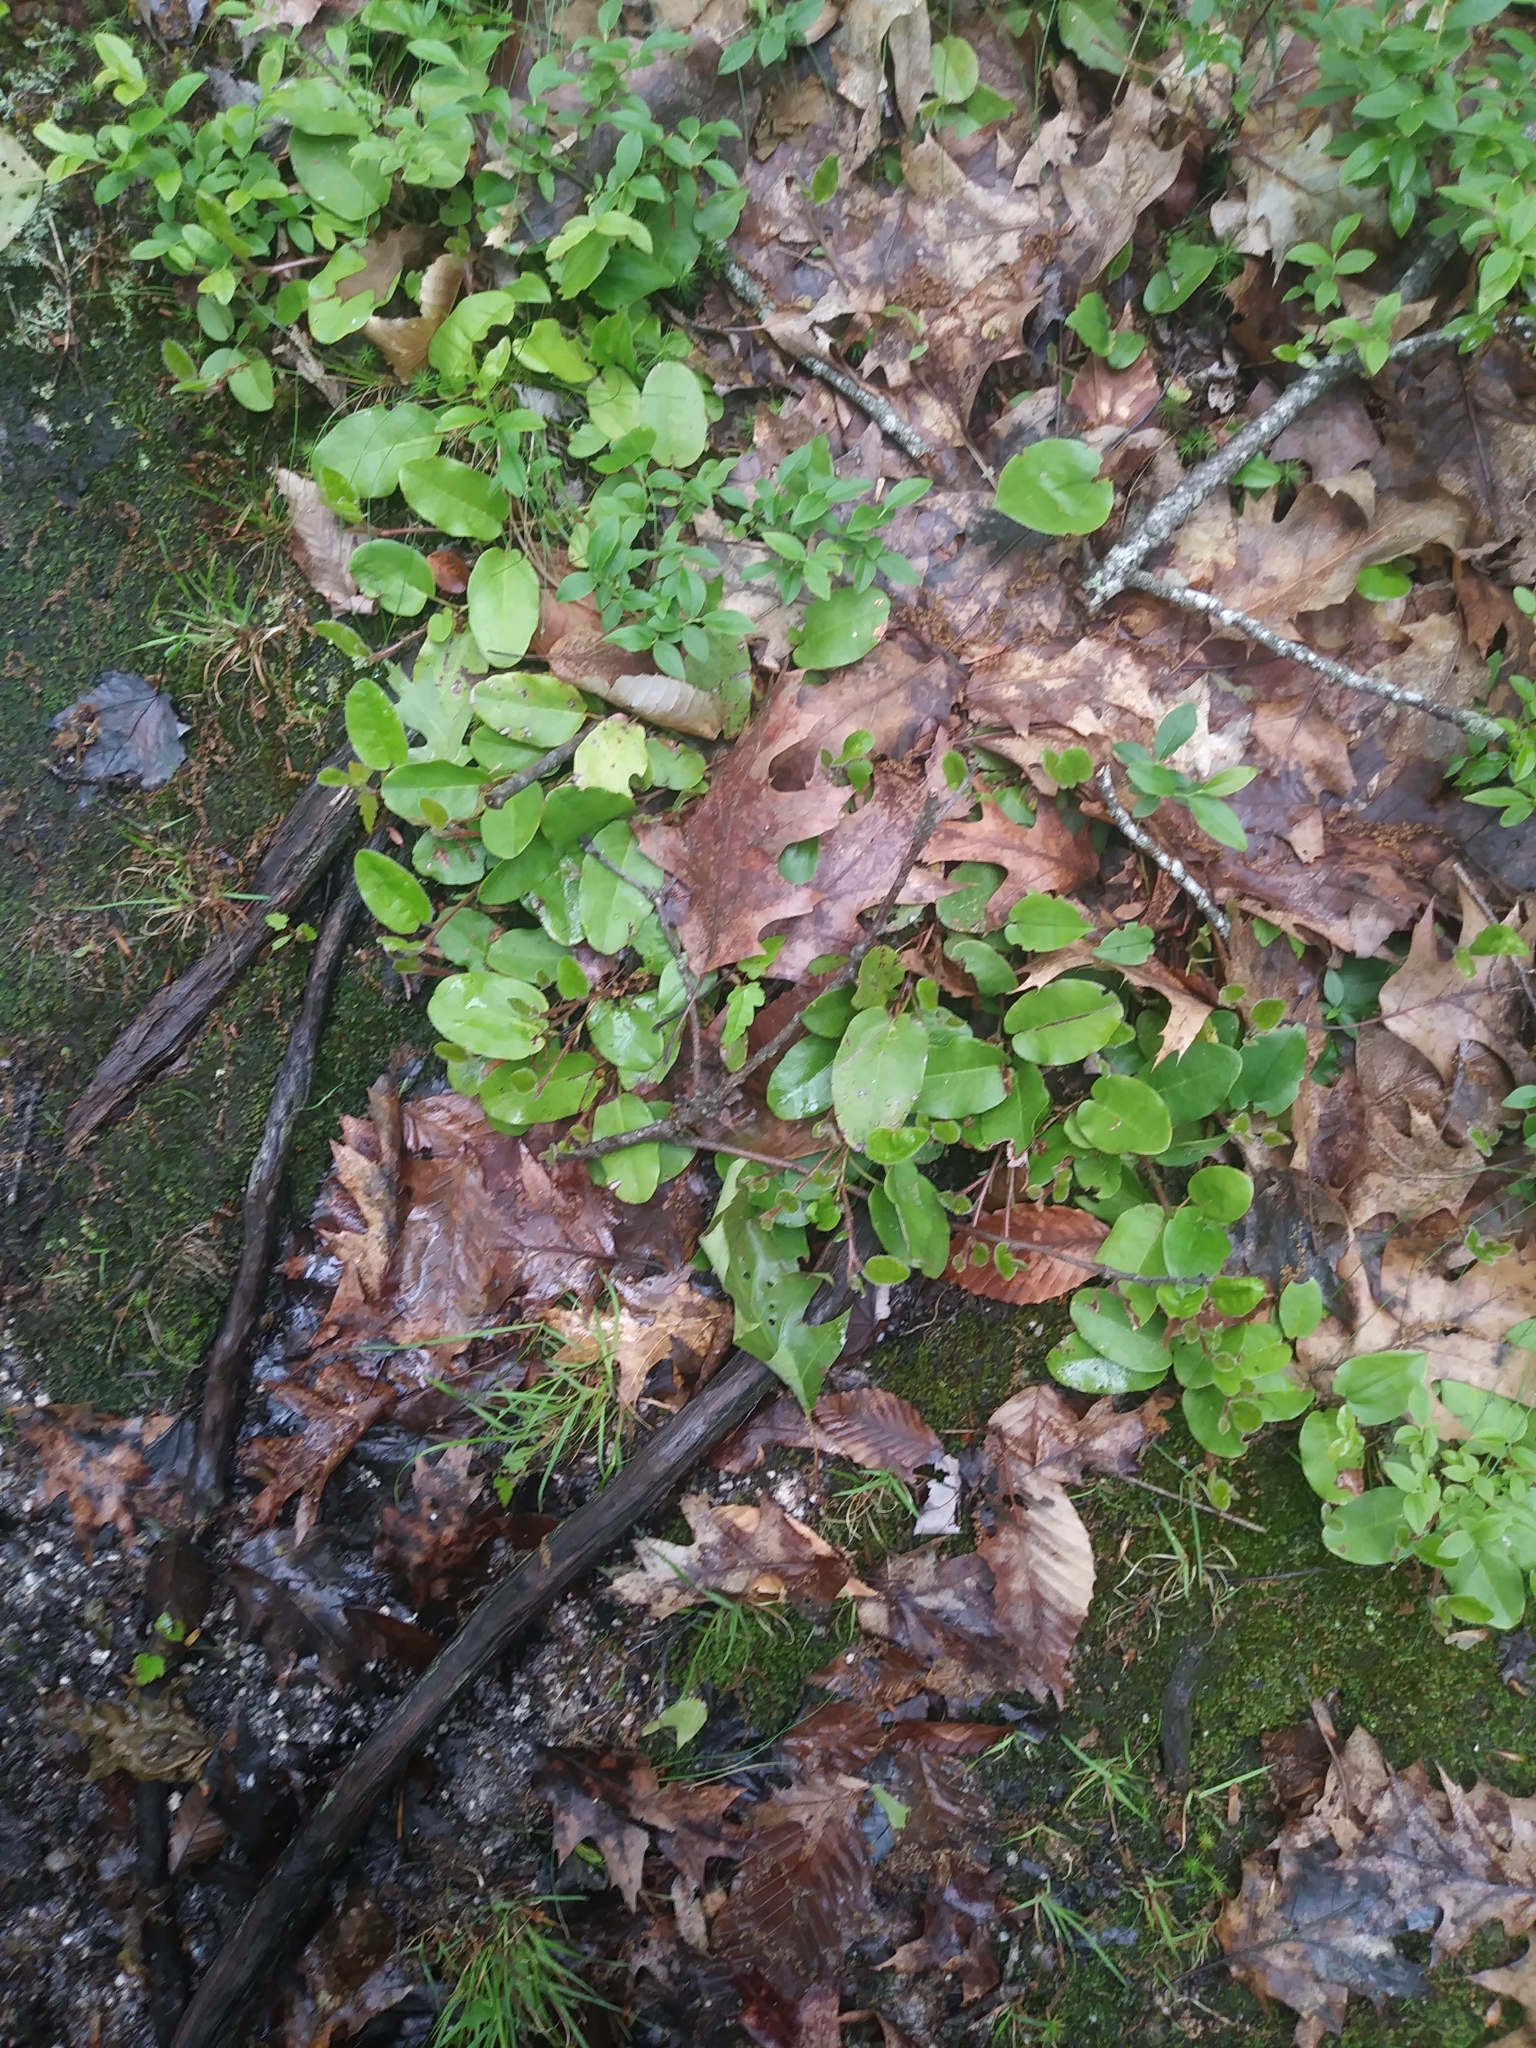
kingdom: Plantae
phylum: Tracheophyta
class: Magnoliopsida
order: Ericales
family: Ericaceae
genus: Epigaea
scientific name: Epigaea repens
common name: Gravelroot
